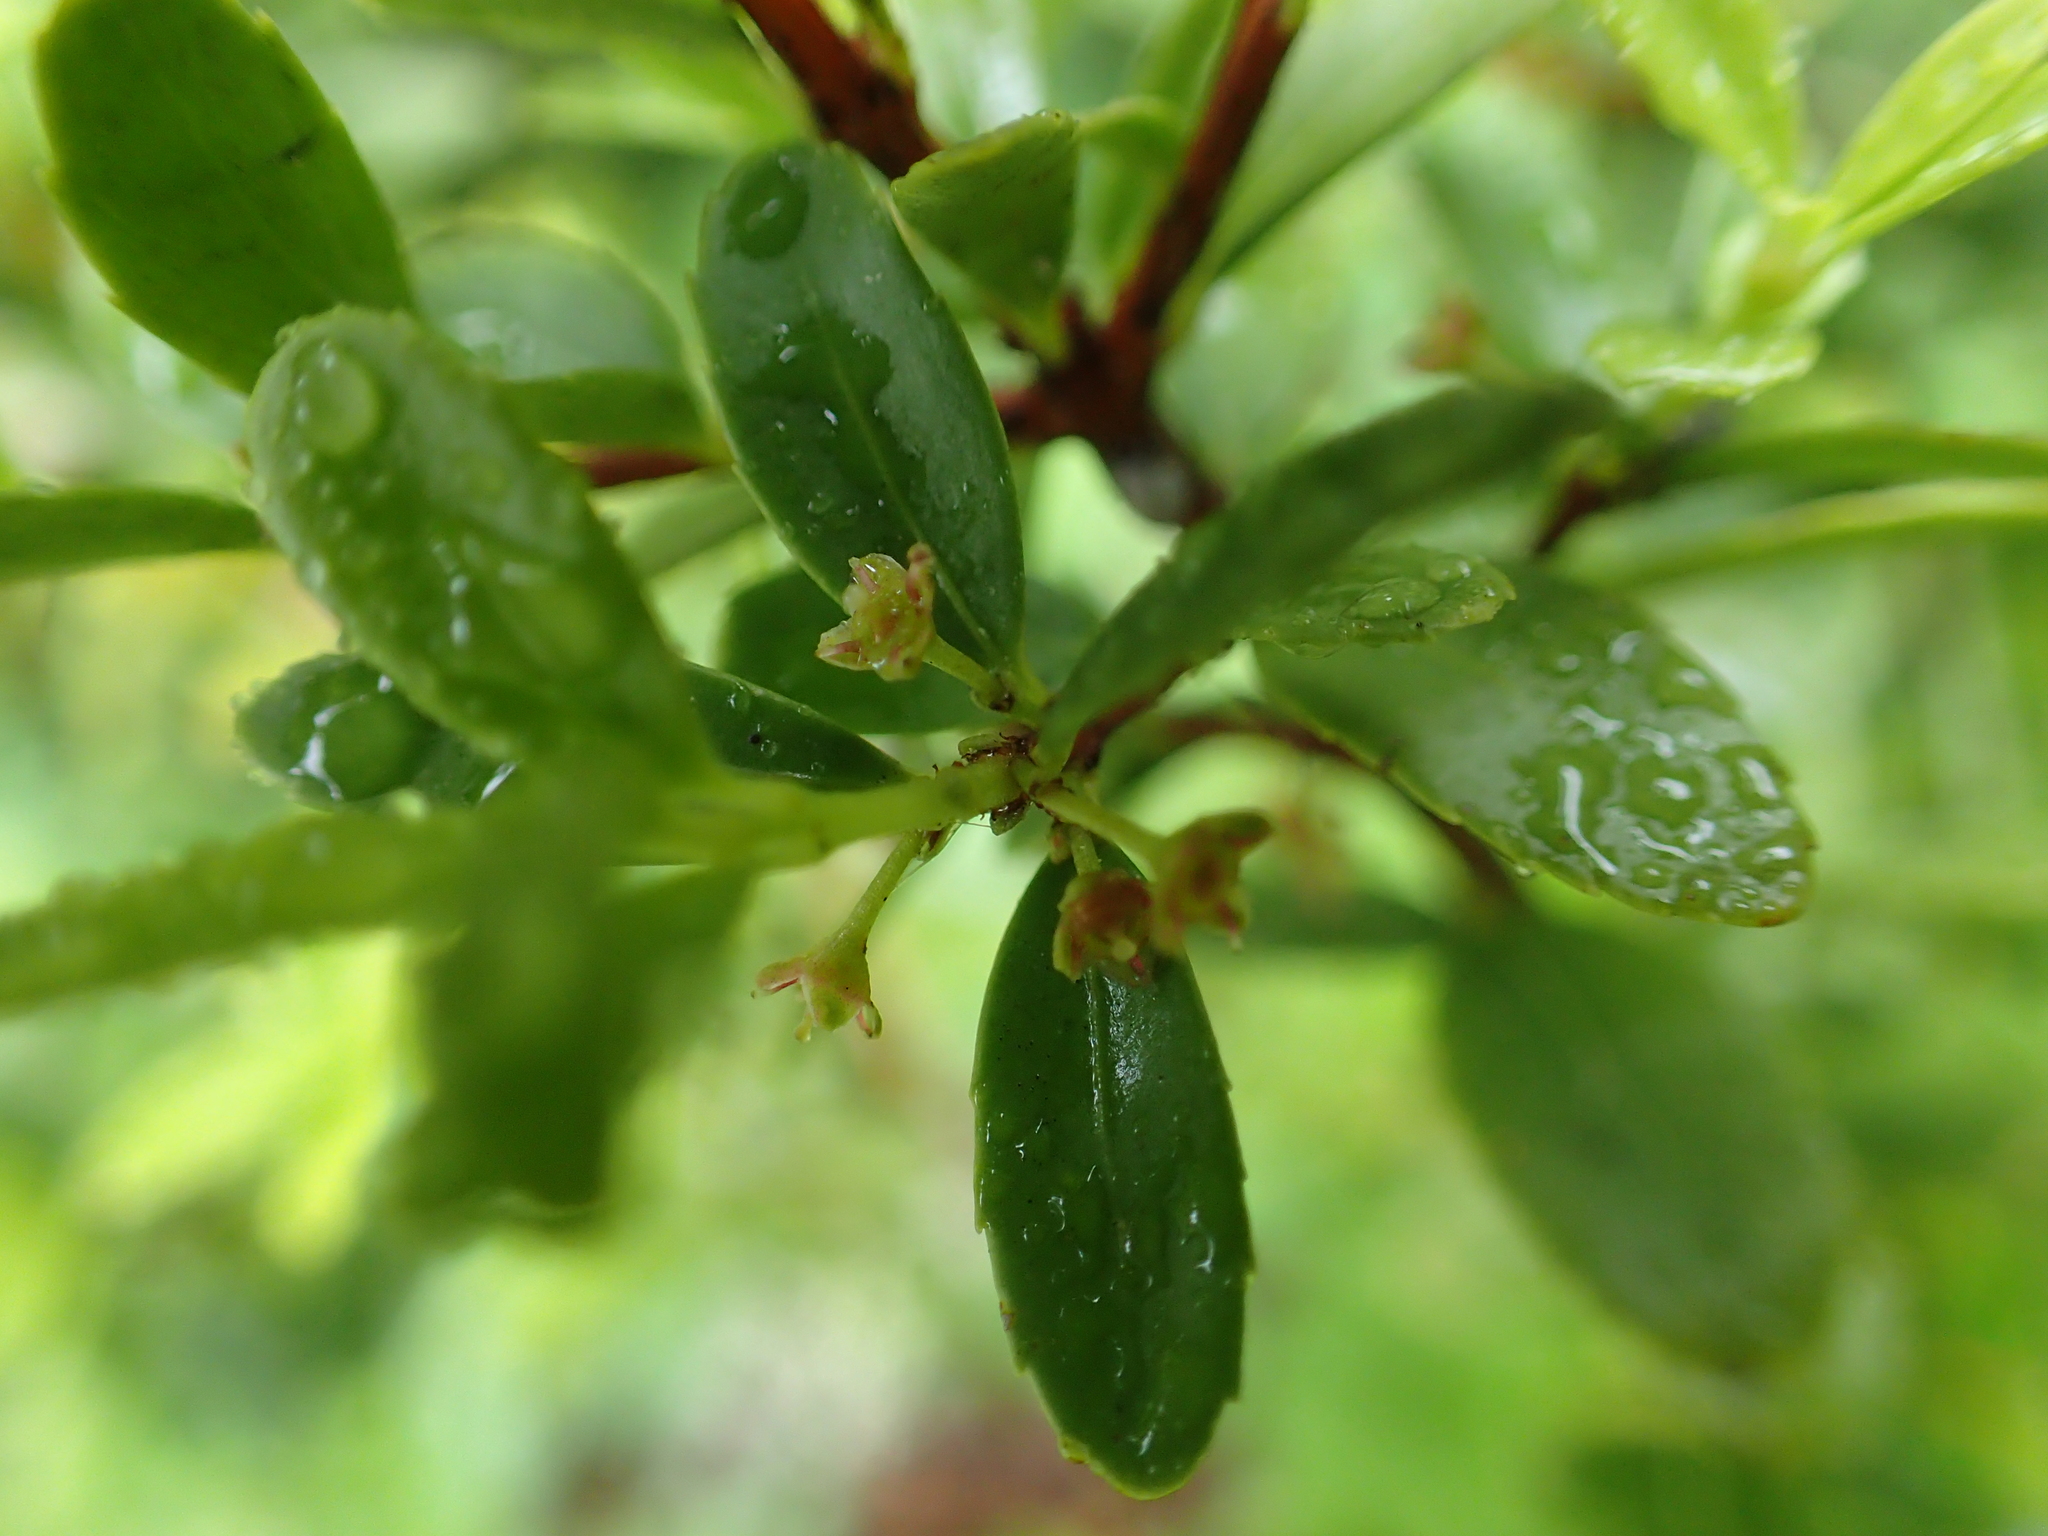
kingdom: Plantae
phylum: Tracheophyta
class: Magnoliopsida
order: Celastrales
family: Celastraceae
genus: Paxistima
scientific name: Paxistima myrsinites
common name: Mountain-lover
